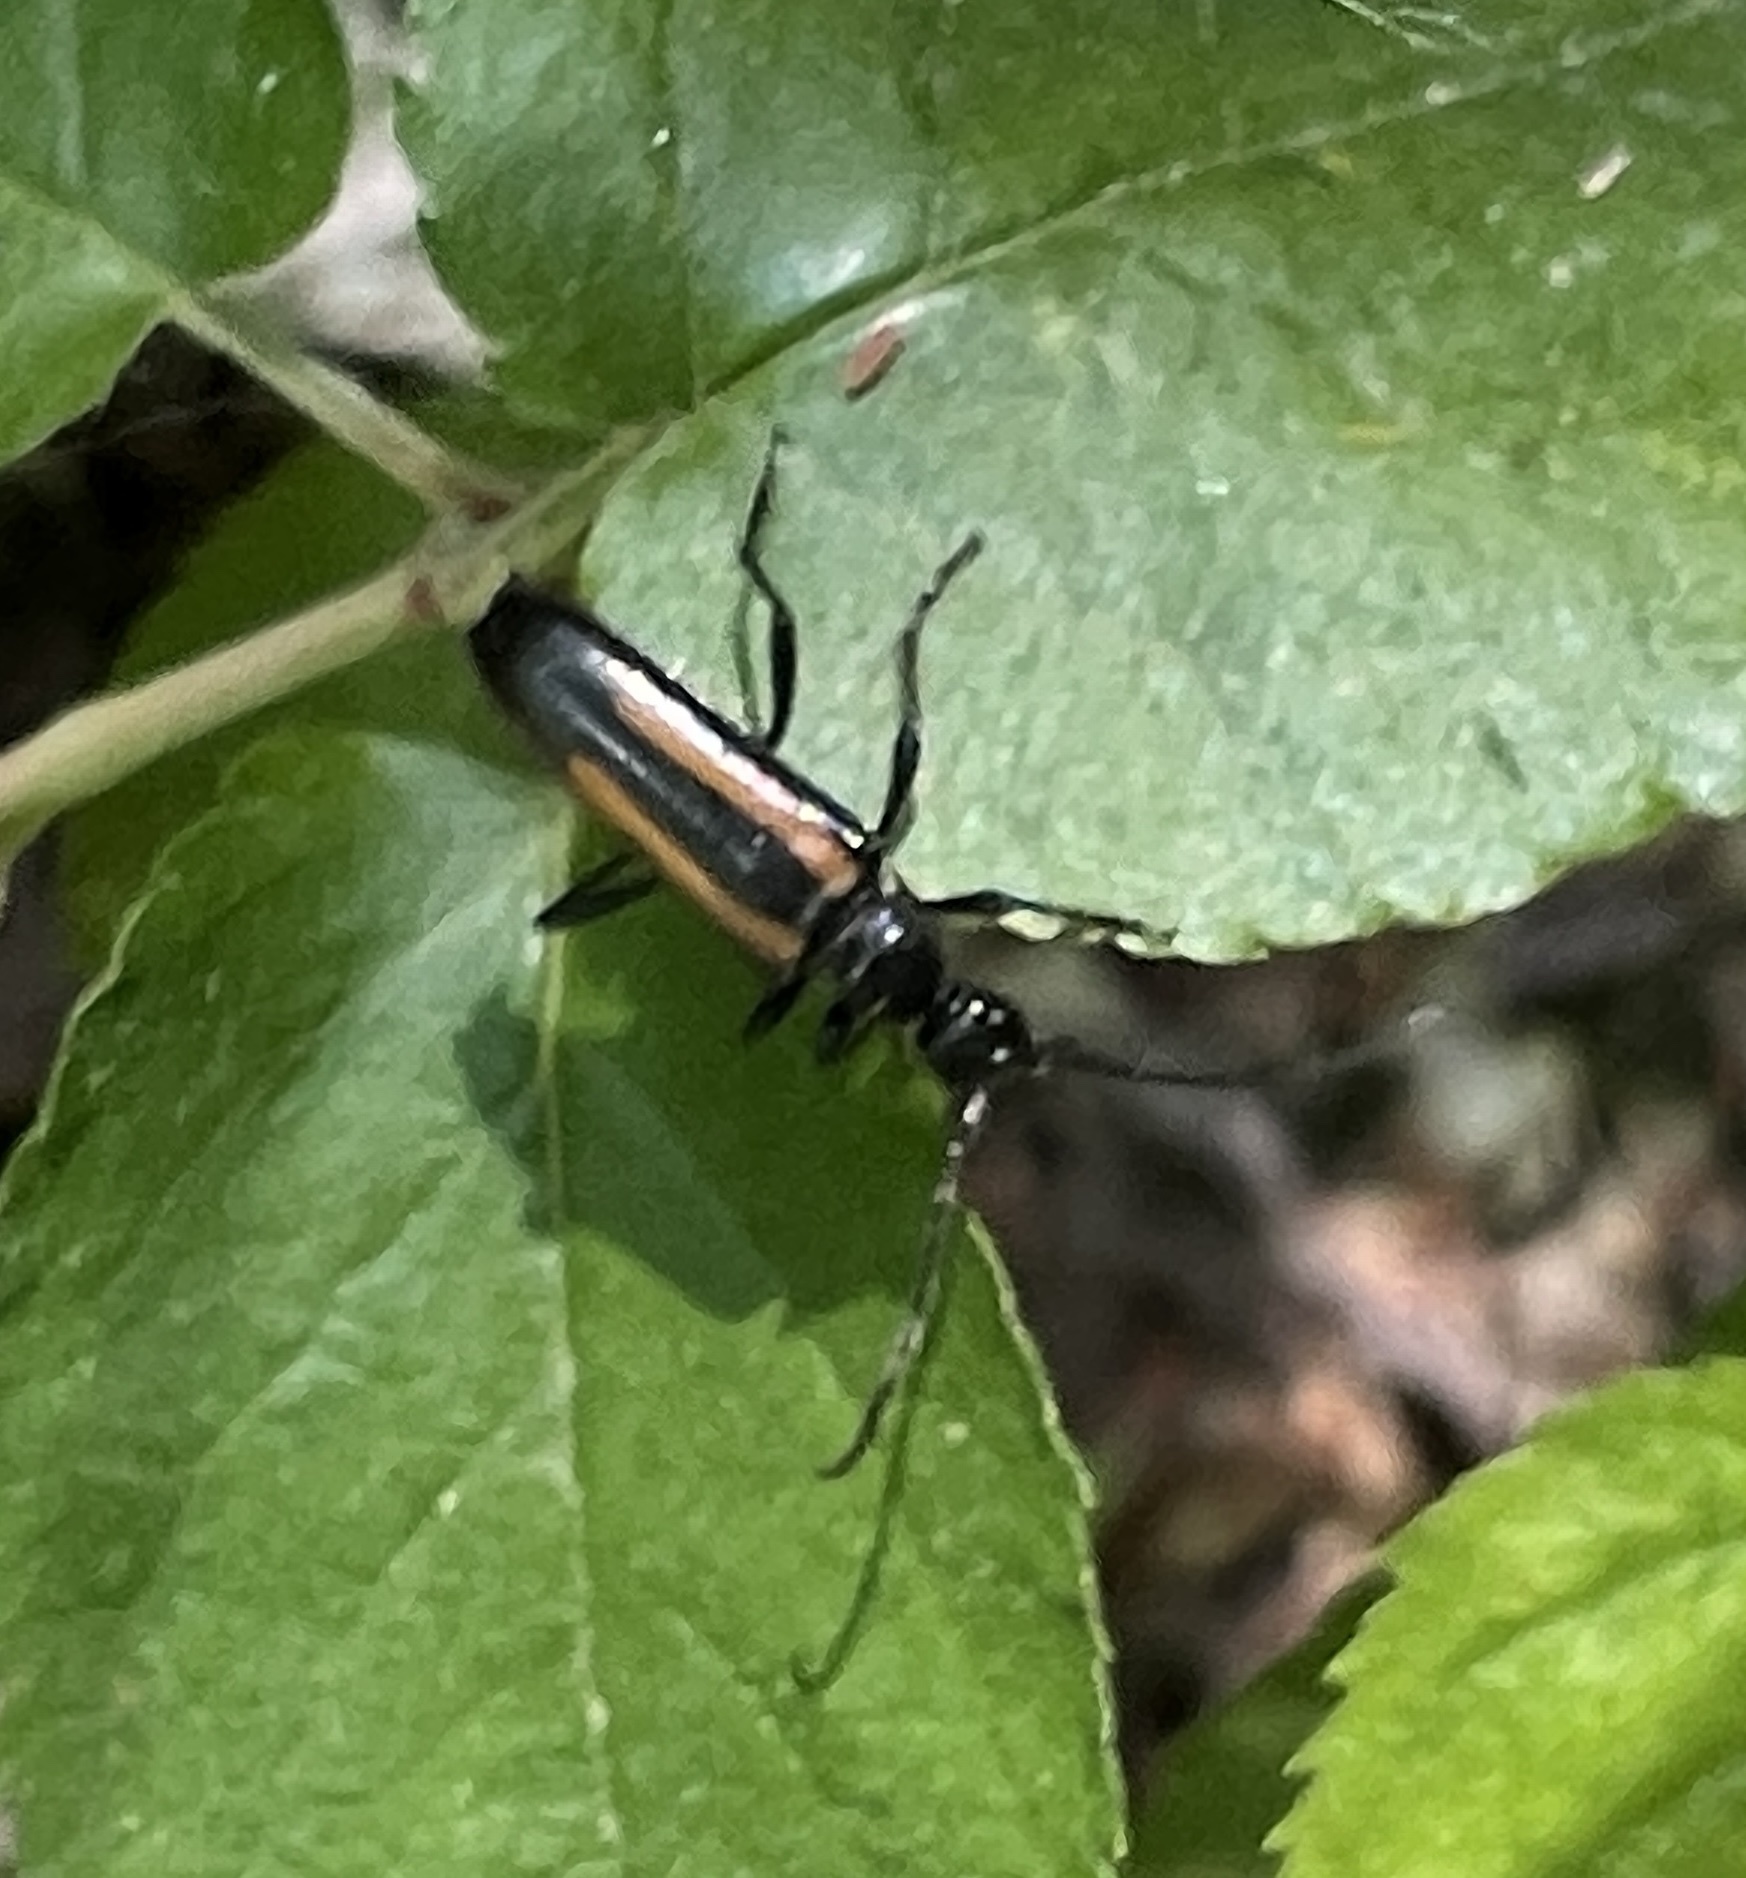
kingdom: Animalia
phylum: Arthropoda
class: Insecta
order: Coleoptera
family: Cerambycidae
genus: Strangalepta
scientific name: Strangalepta abbreviata
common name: Strangalepta flower longhorn beetle
